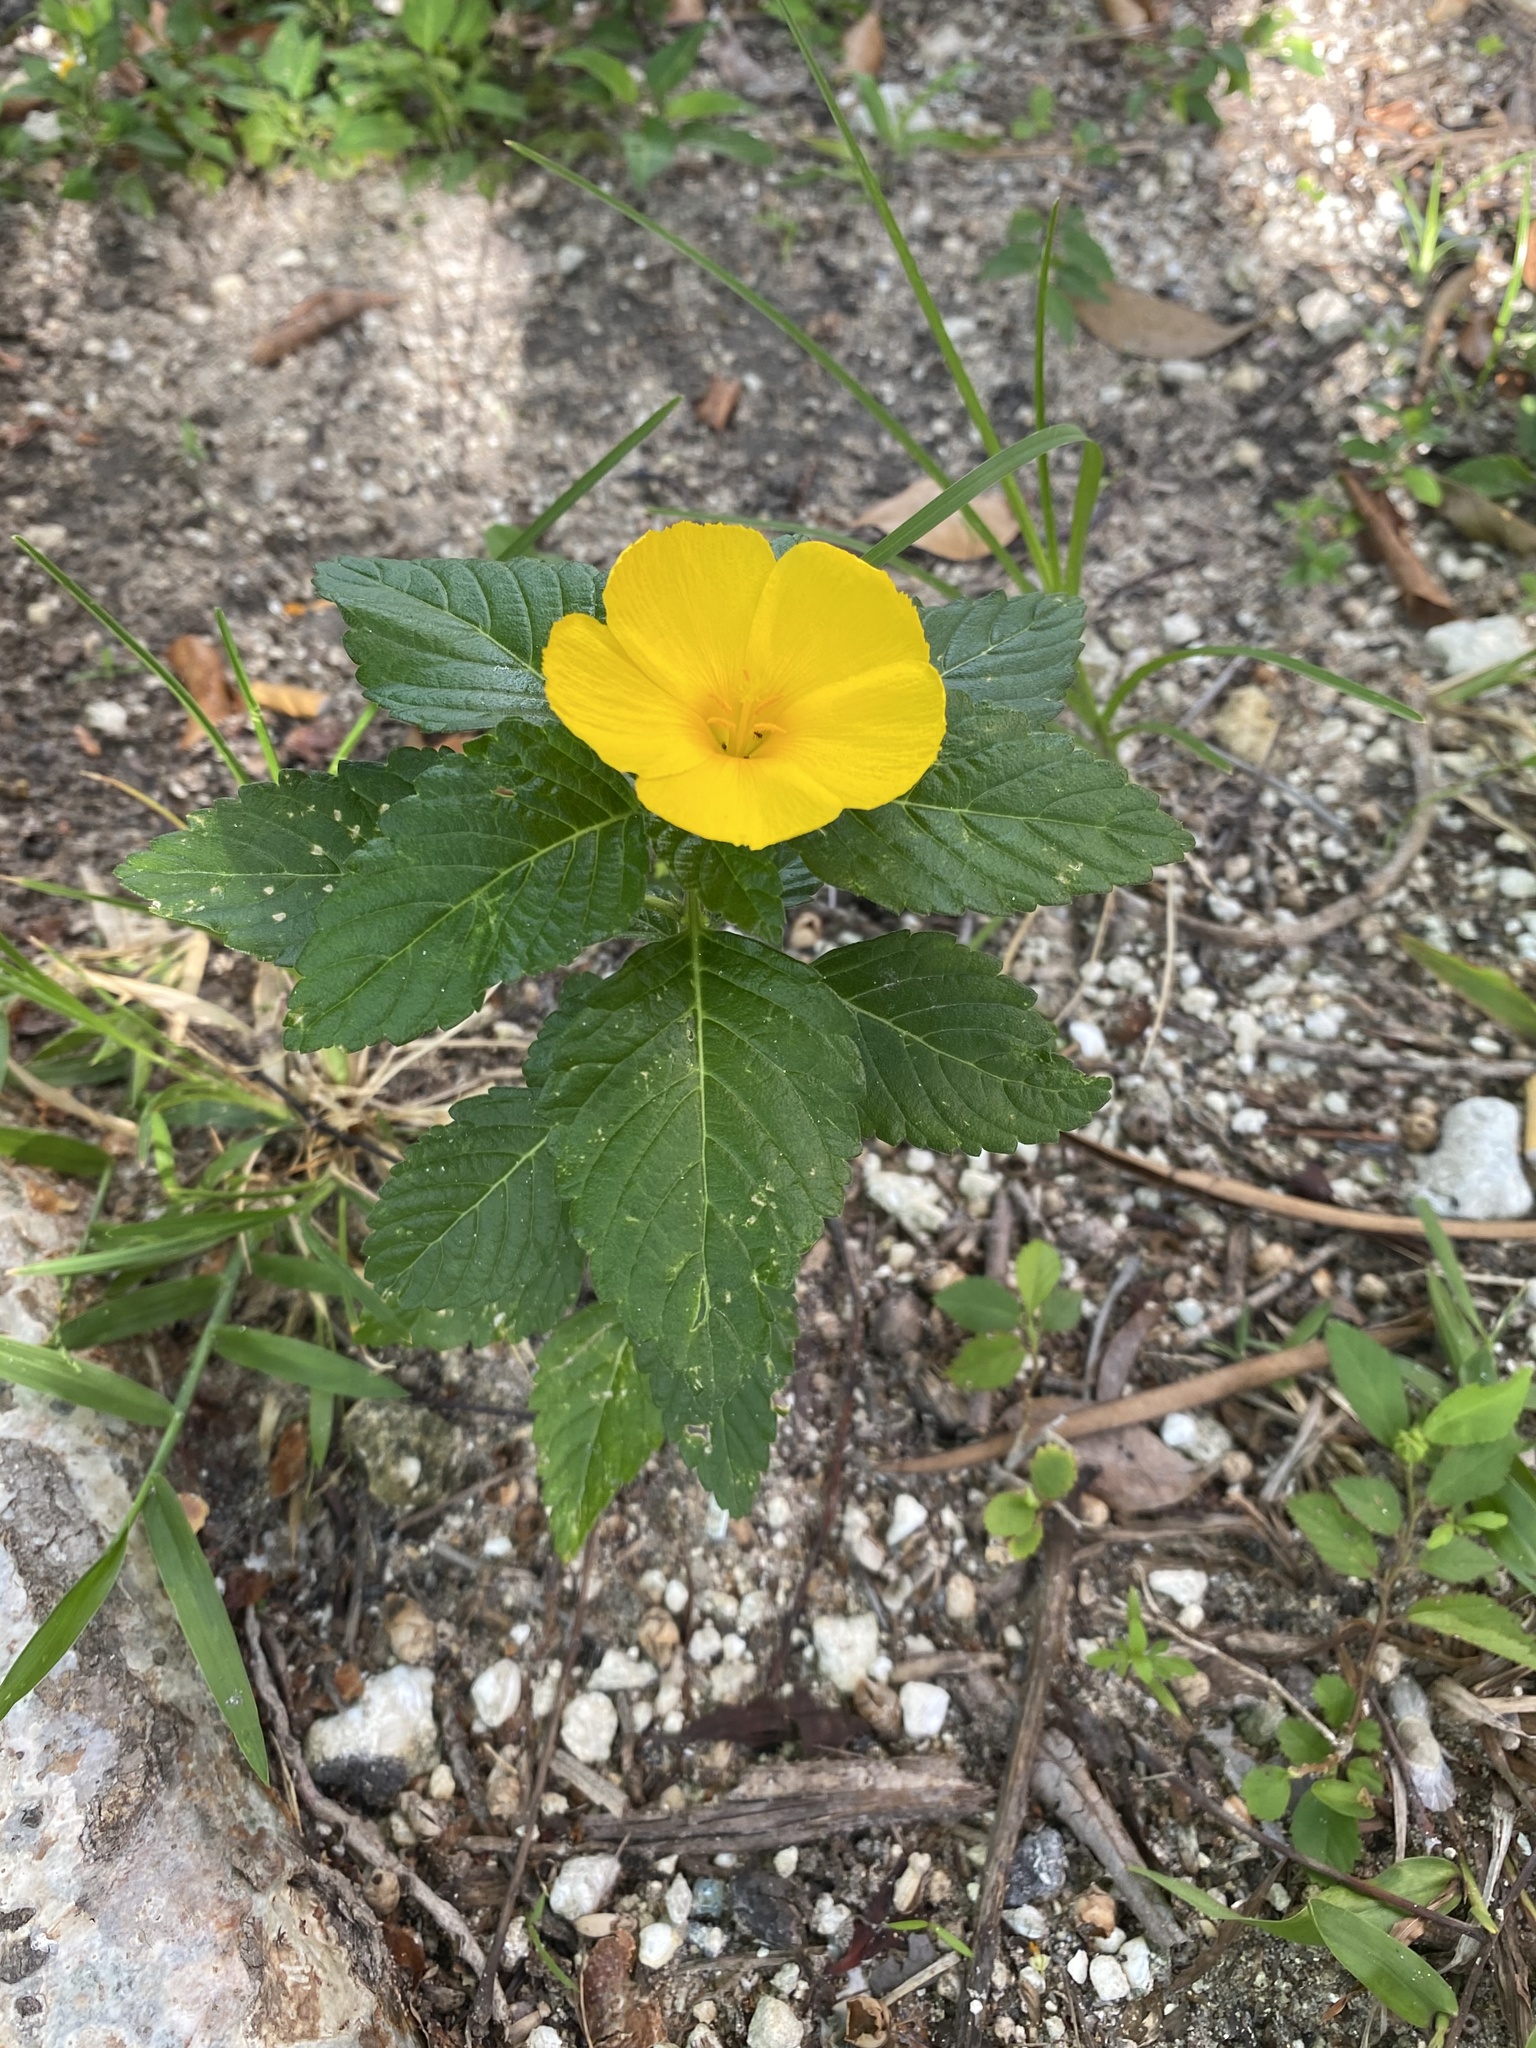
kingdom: Plantae
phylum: Tracheophyta
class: Magnoliopsida
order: Malpighiales
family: Turneraceae
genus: Turnera
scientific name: Turnera ulmifolia
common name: Ramgoat dashalong
